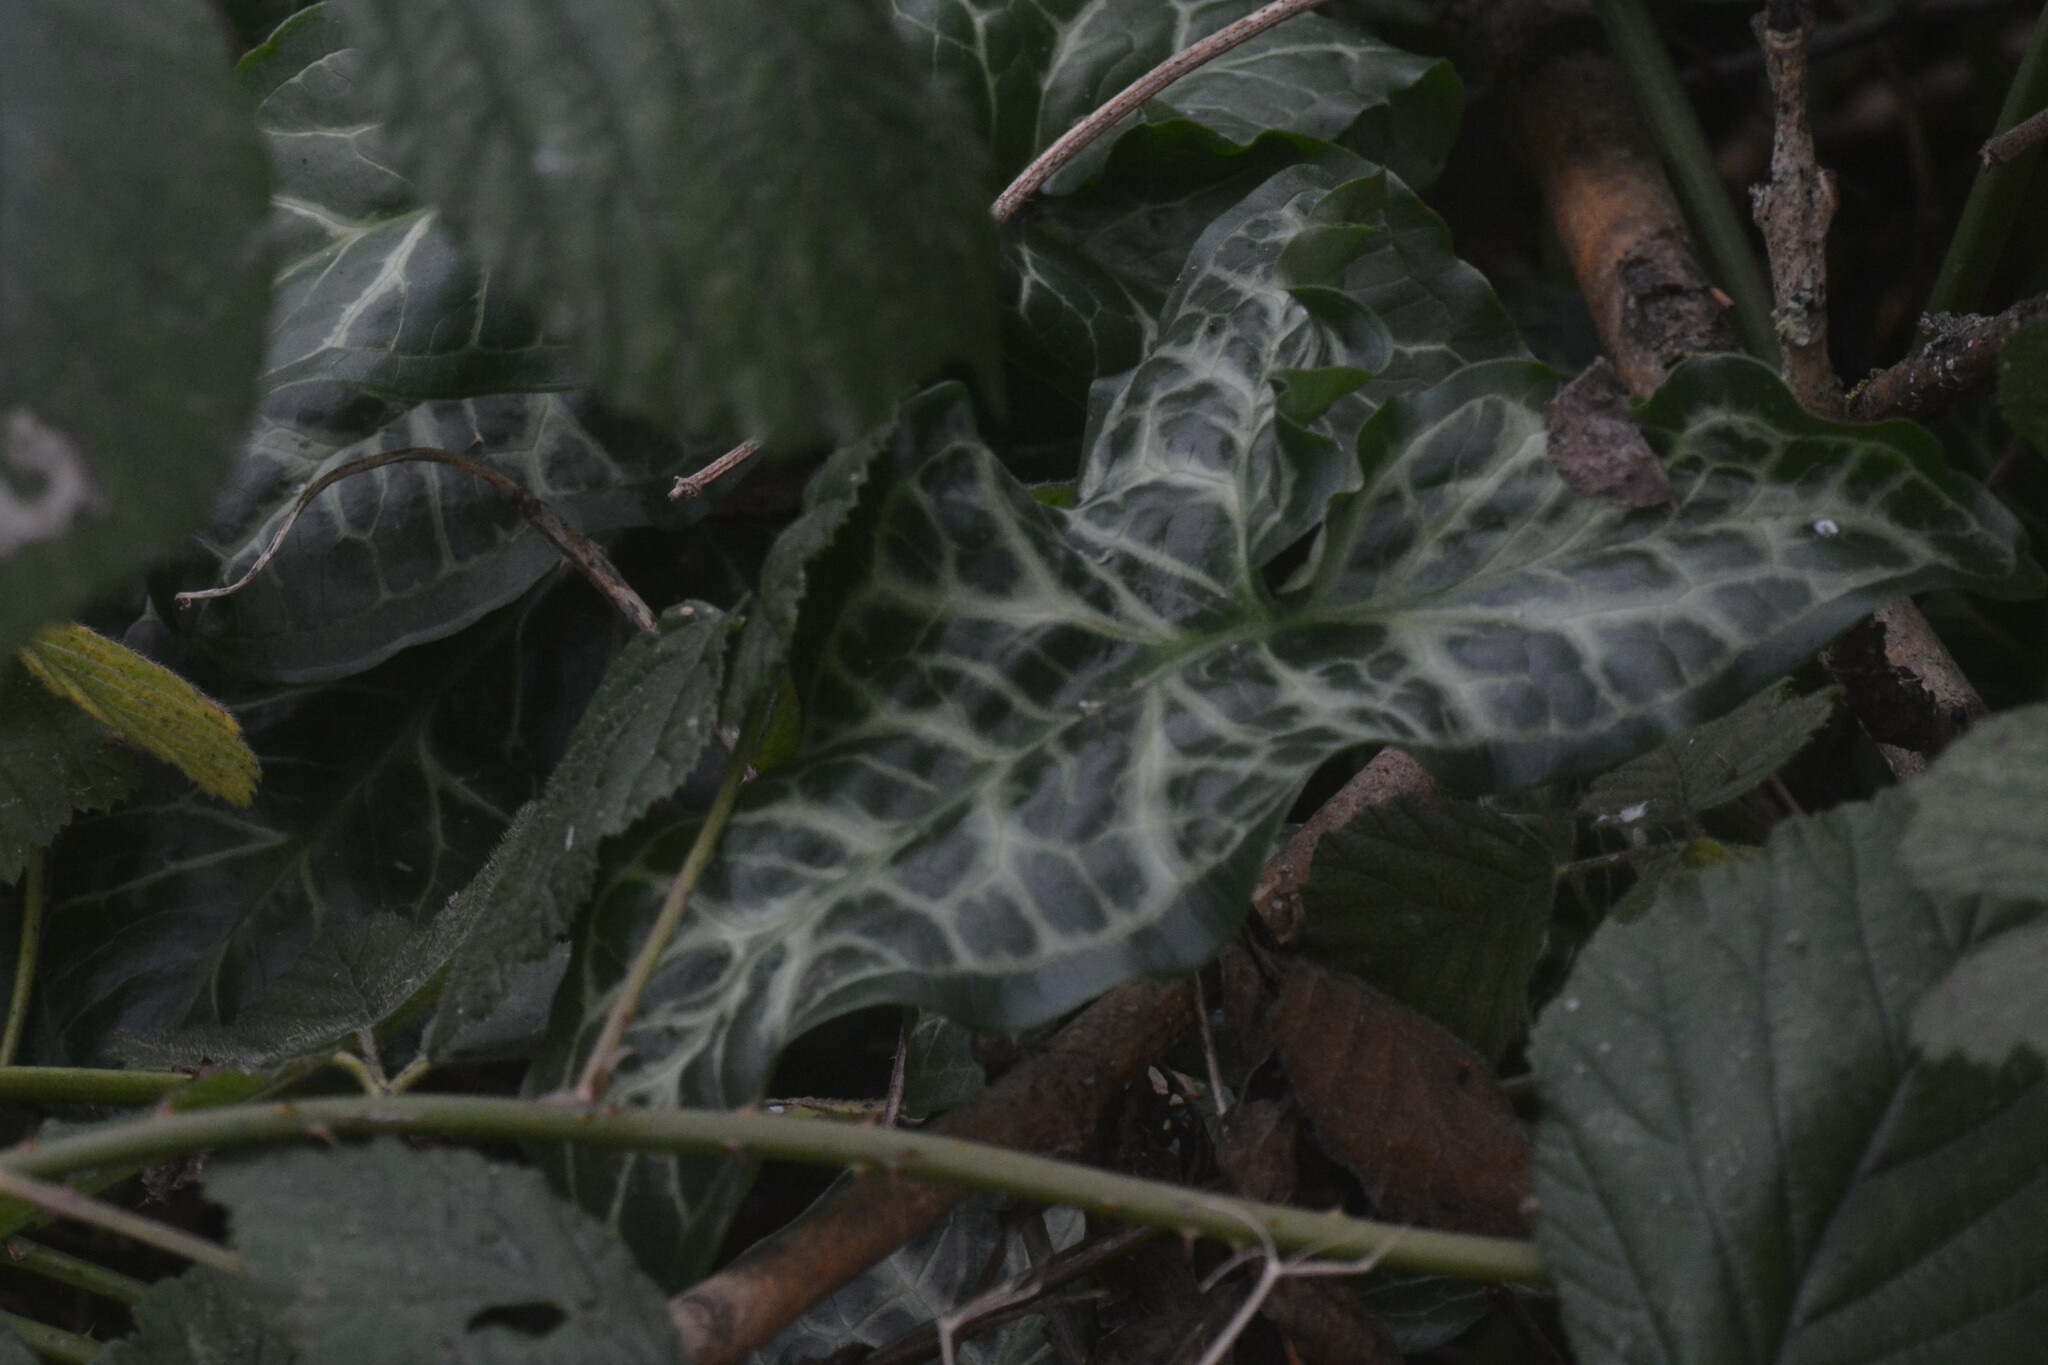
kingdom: Plantae
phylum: Tracheophyta
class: Liliopsida
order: Alismatales
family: Araceae
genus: Arum
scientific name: Arum italicum
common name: Italian lords-and-ladies
